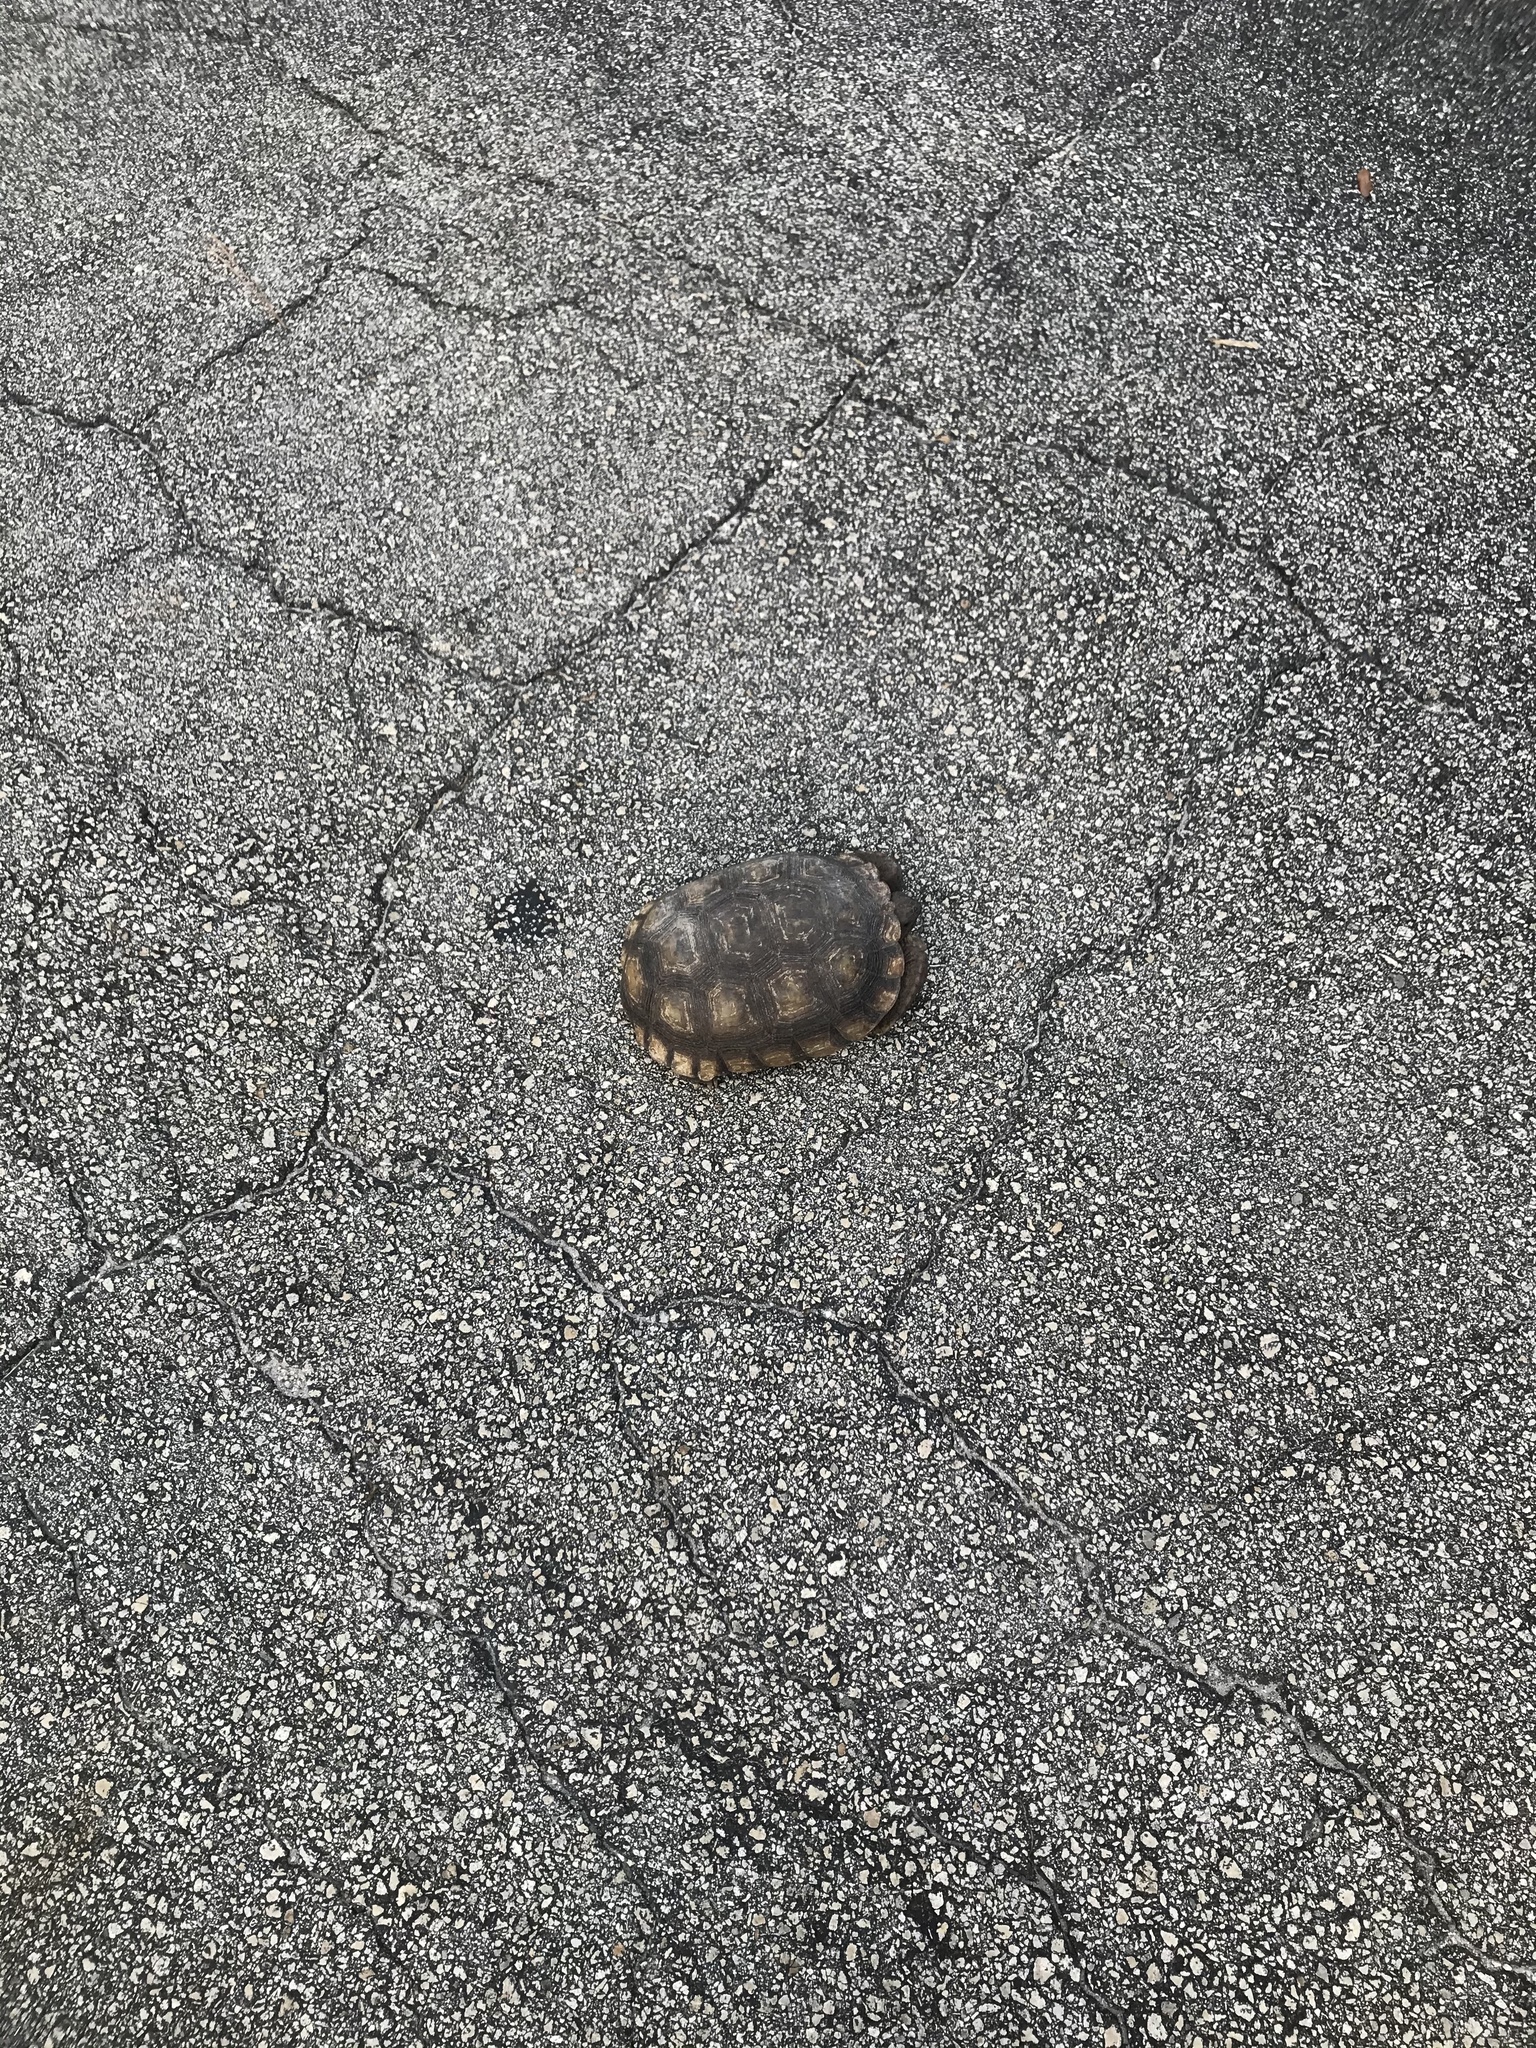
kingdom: Animalia
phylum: Chordata
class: Testudines
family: Testudinidae
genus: Gopherus
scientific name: Gopherus polyphemus
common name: Florida gopher tortoise
